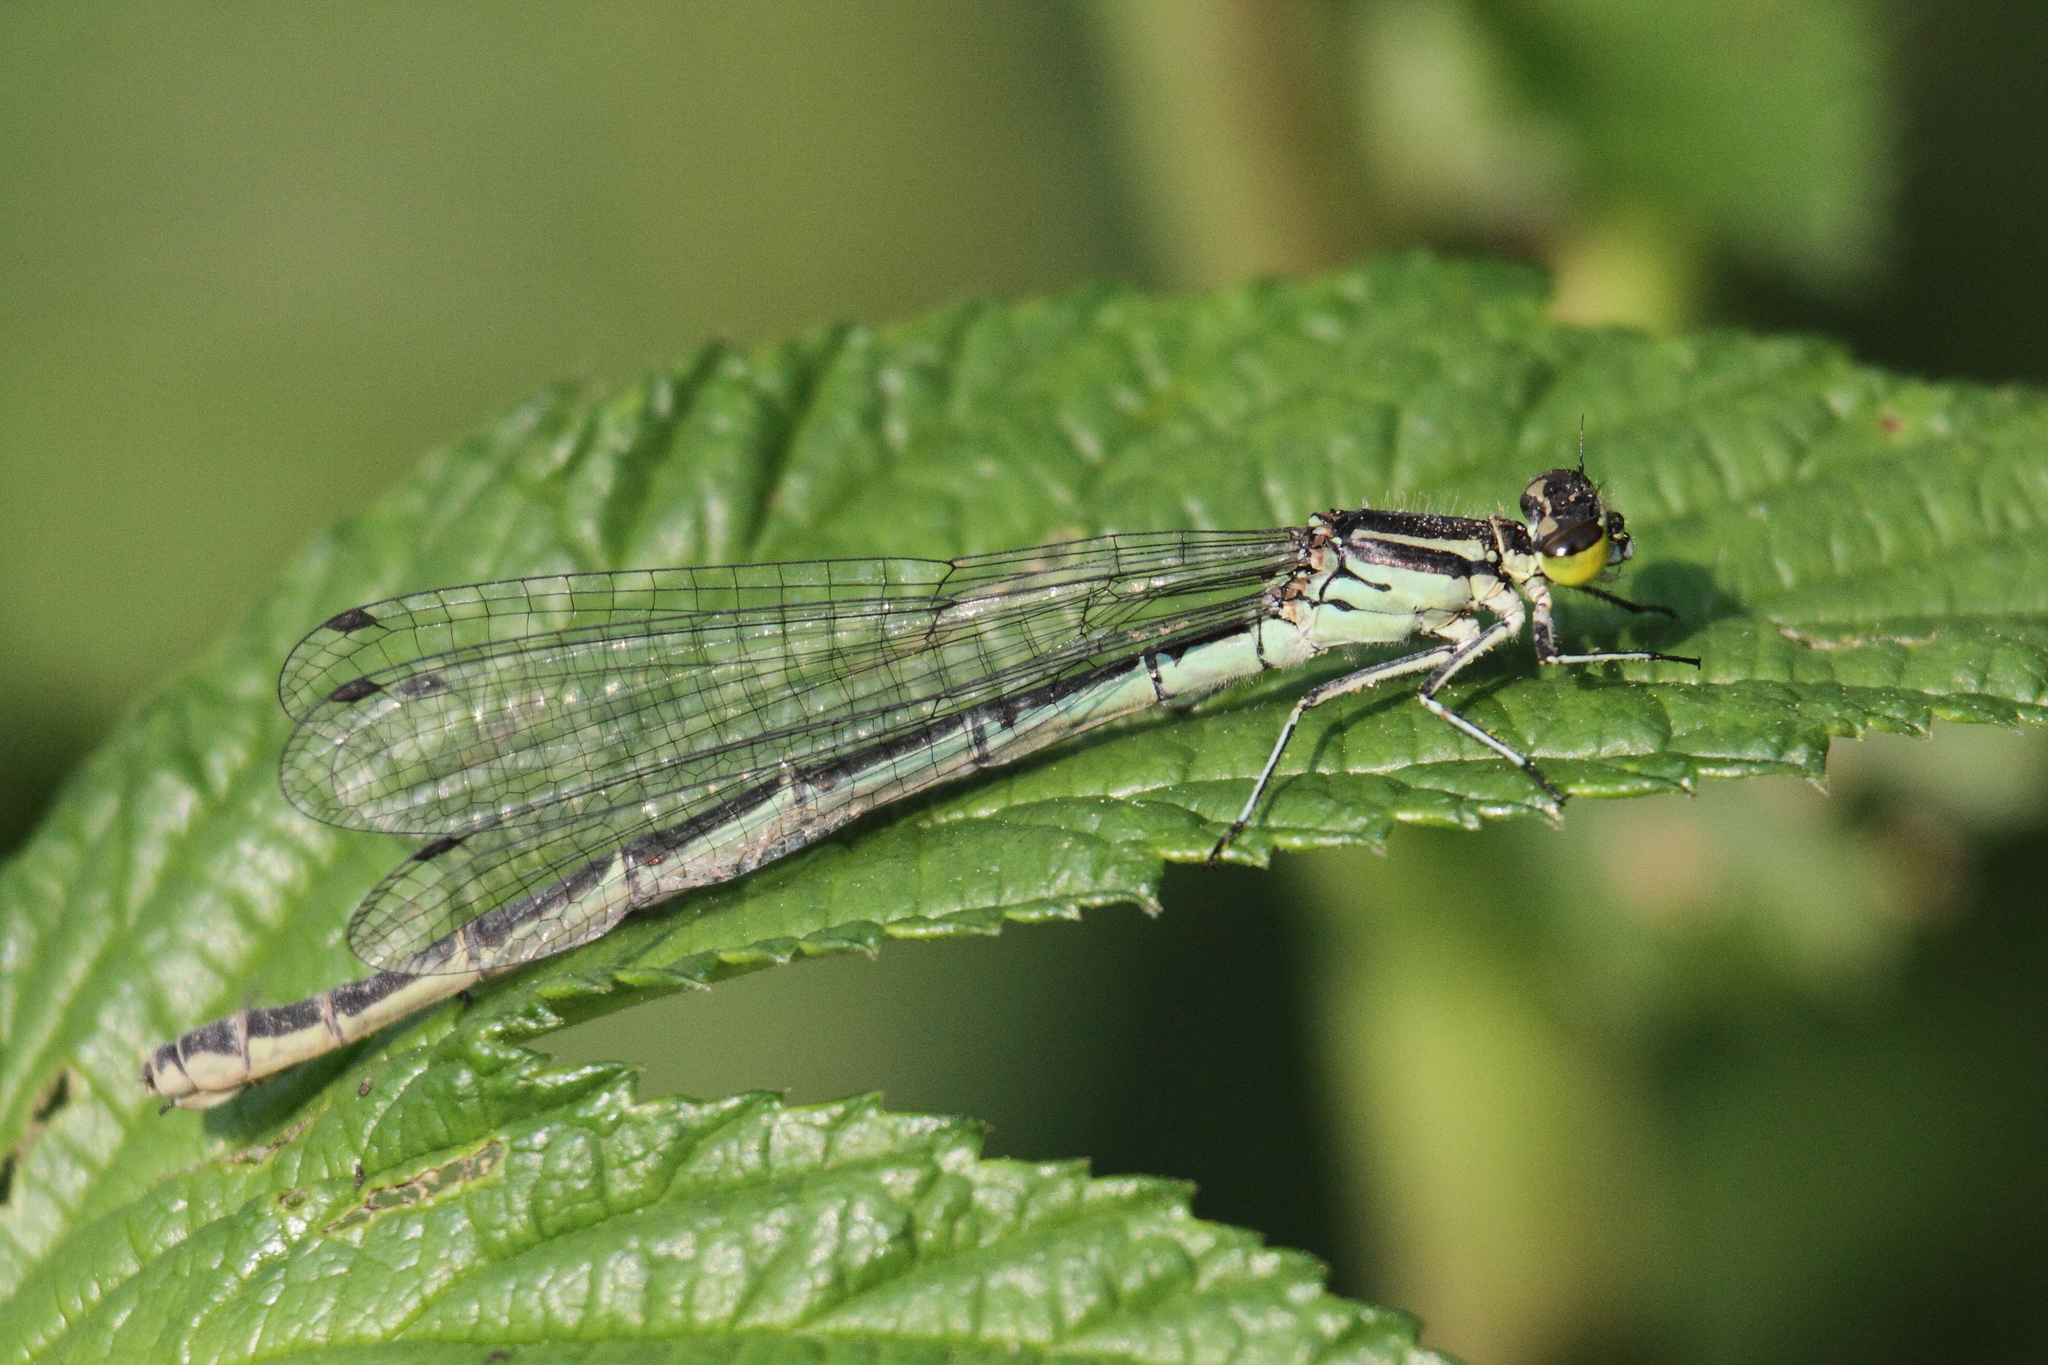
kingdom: Animalia
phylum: Arthropoda
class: Insecta
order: Odonata
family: Coenagrionidae
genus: Coenagrion
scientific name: Coenagrion hastulatum
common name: Spearhead bluet
